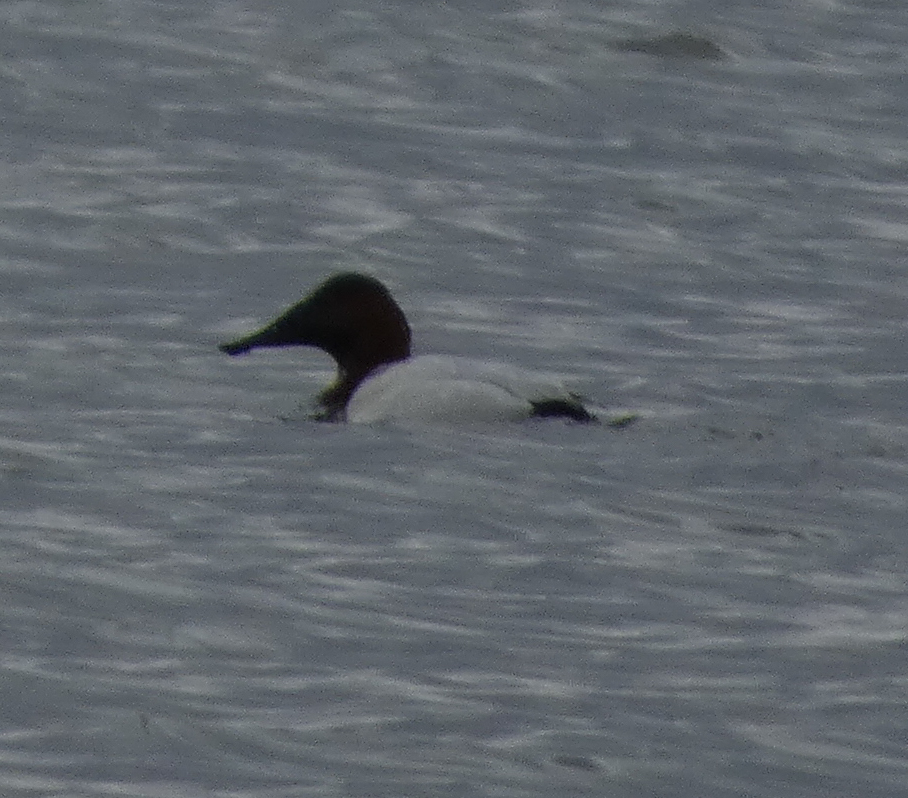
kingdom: Animalia
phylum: Chordata
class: Aves
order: Anseriformes
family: Anatidae
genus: Aythya
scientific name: Aythya valisineria
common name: Canvasback
